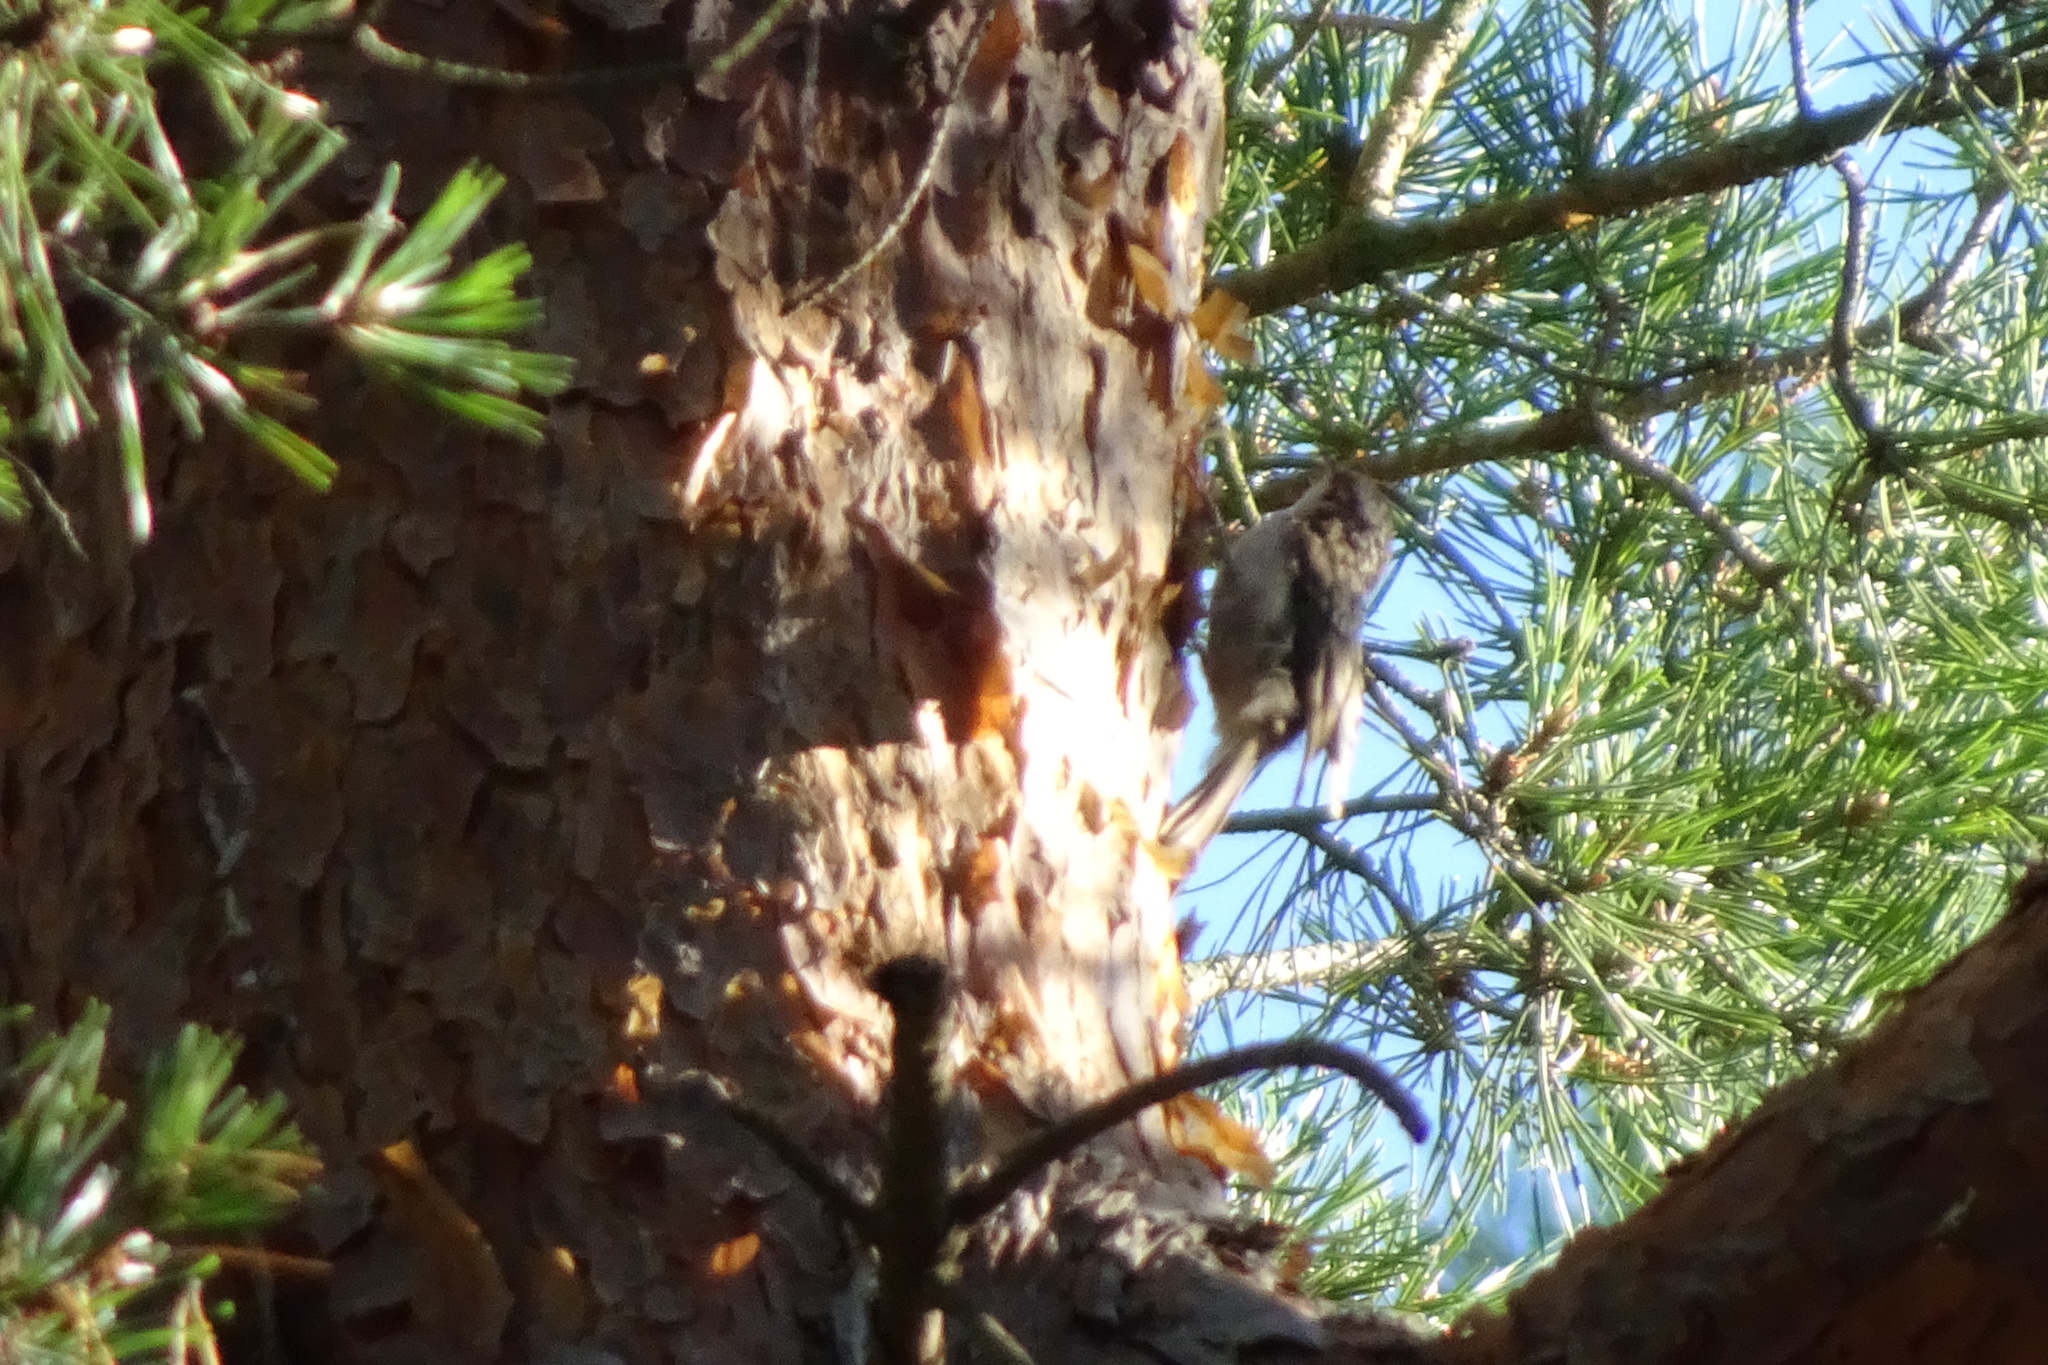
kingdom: Animalia
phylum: Chordata
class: Aves
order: Passeriformes
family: Certhiidae
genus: Certhia
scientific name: Certhia familiaris
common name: Eurasian treecreeper
